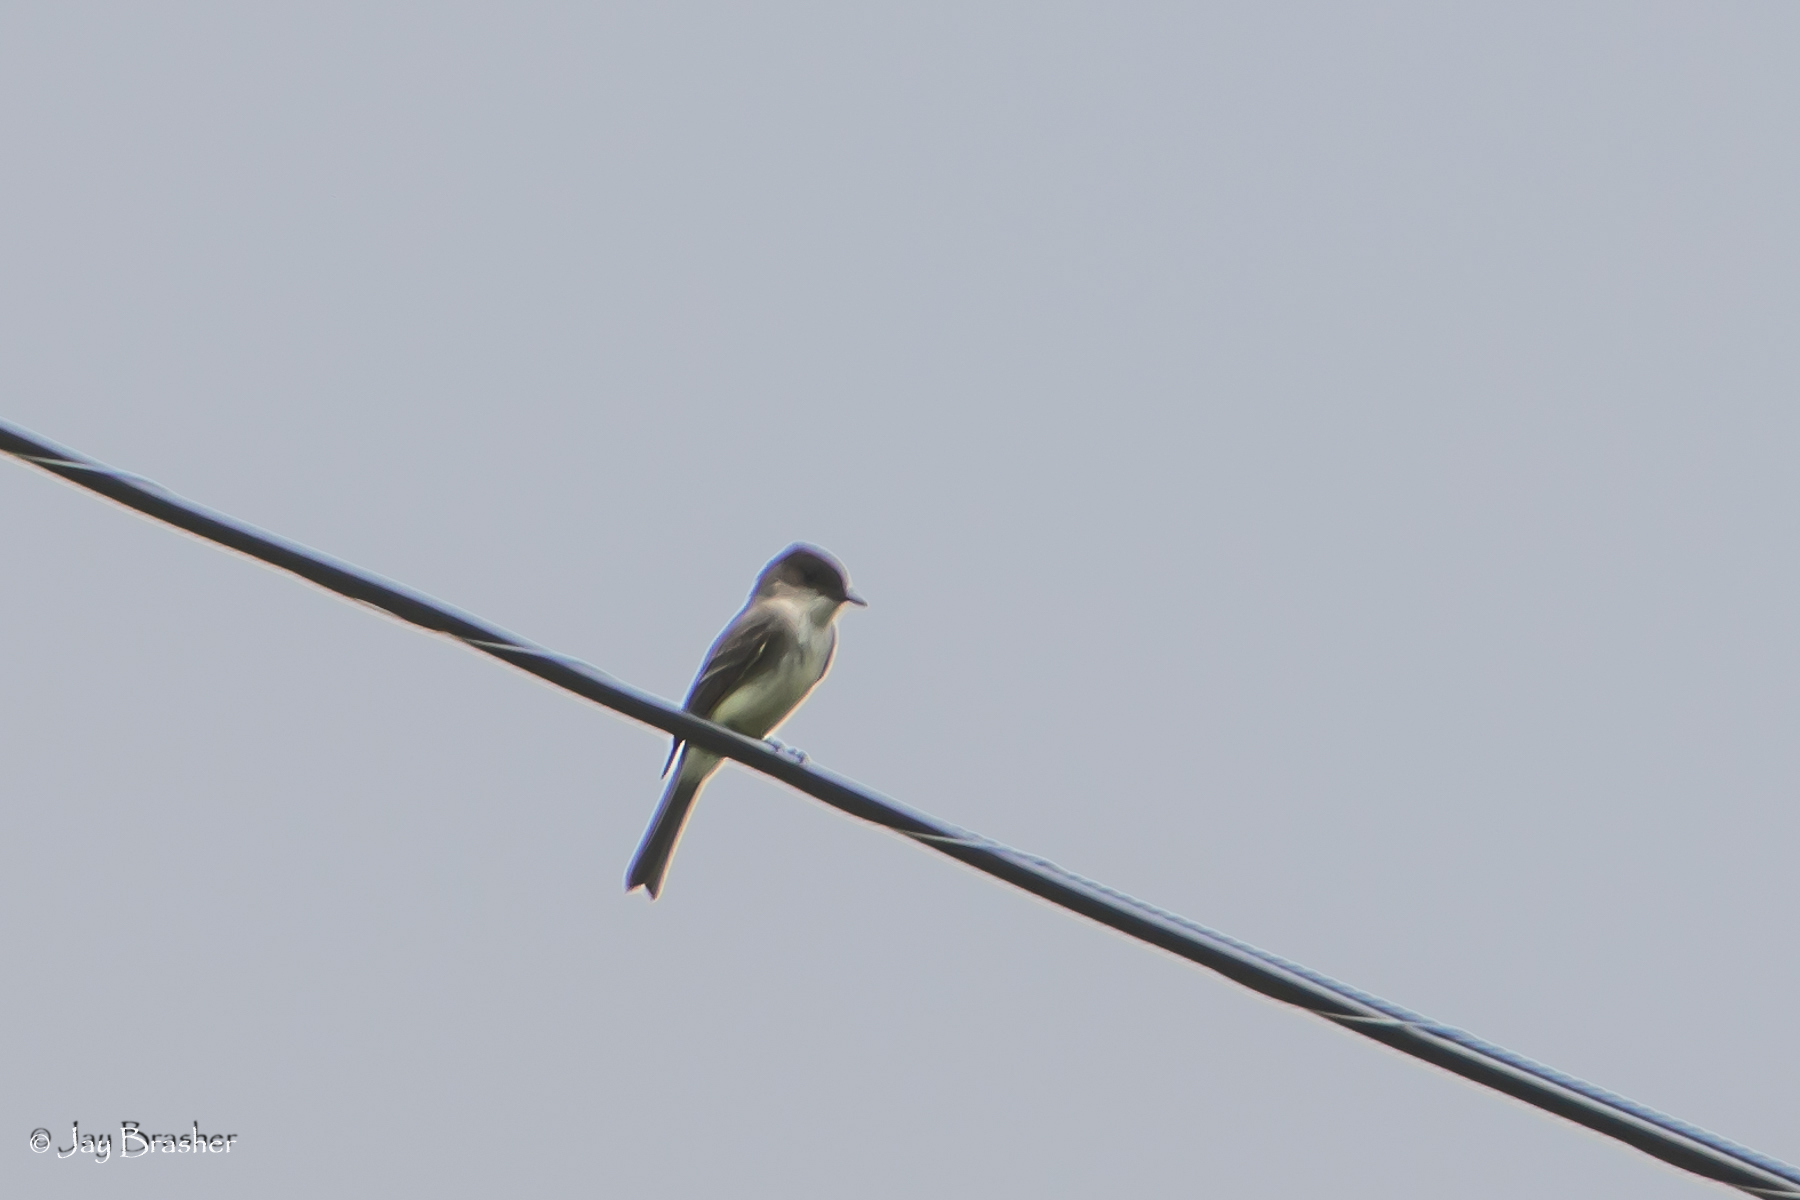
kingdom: Animalia
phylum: Chordata
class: Aves
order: Passeriformes
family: Tyrannidae
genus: Sayornis
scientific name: Sayornis phoebe
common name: Eastern phoebe
